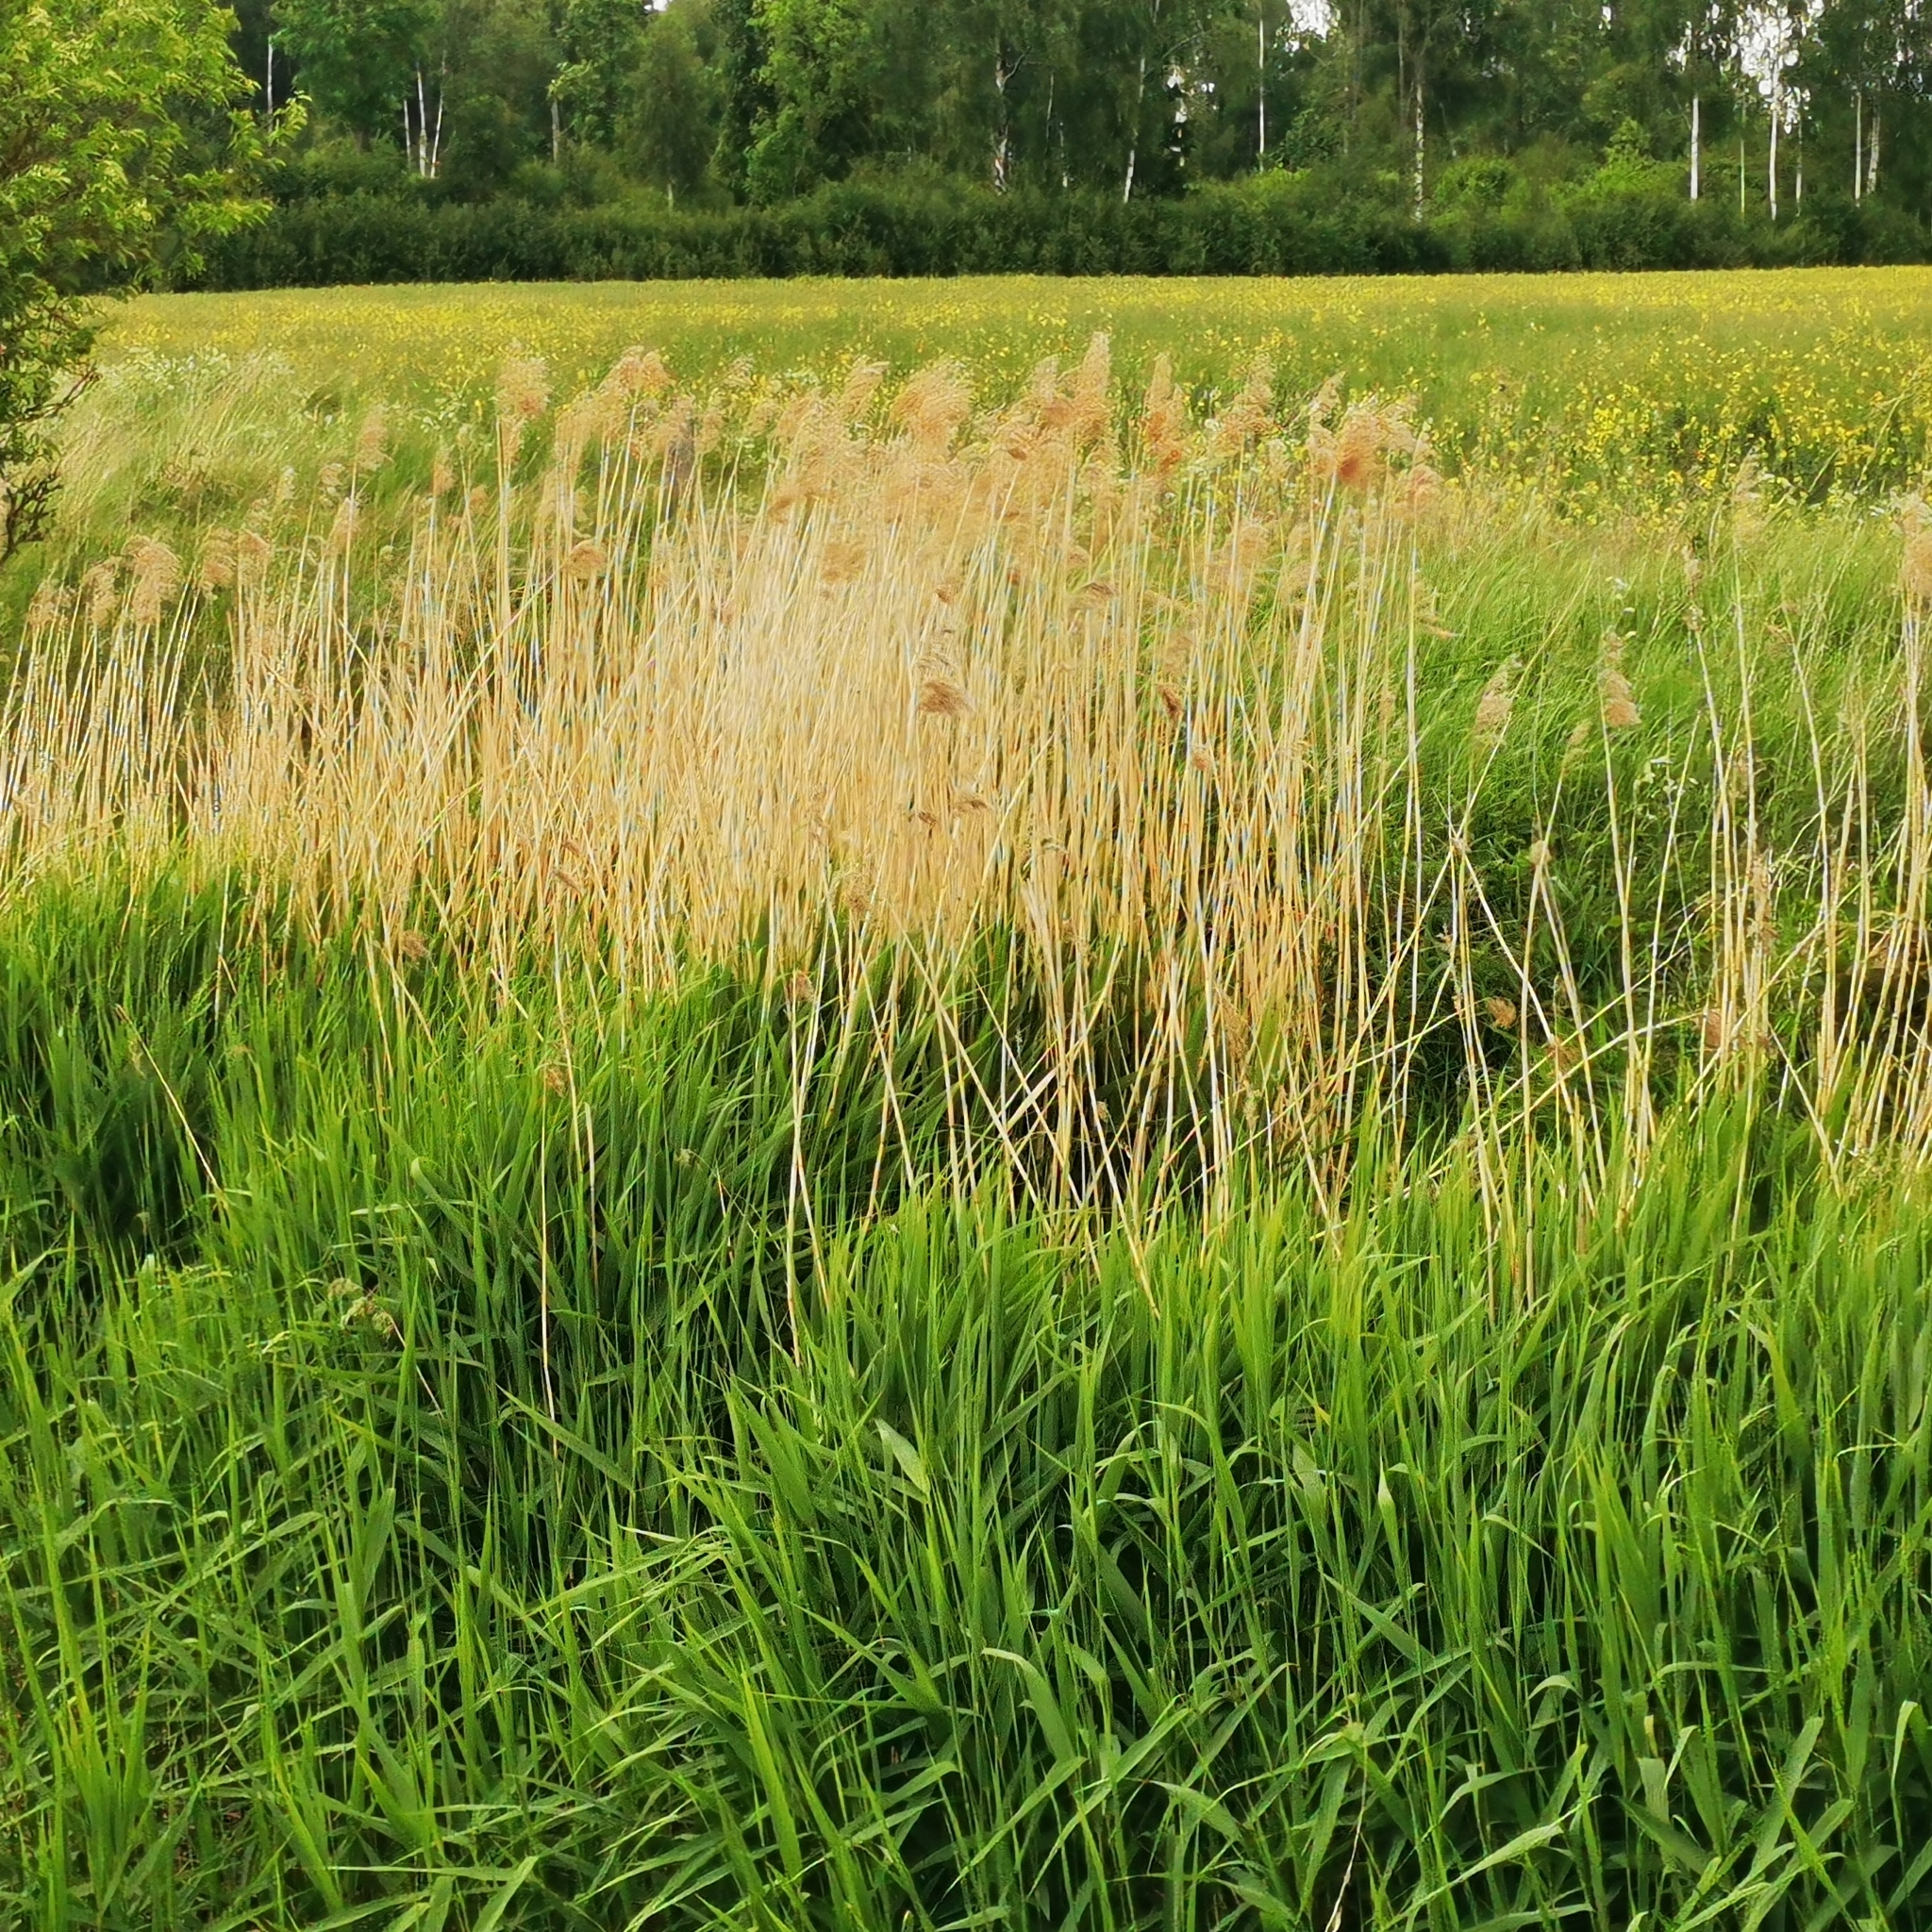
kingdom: Plantae
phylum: Tracheophyta
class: Liliopsida
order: Poales
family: Poaceae
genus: Phragmites
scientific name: Phragmites australis
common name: Common reed
